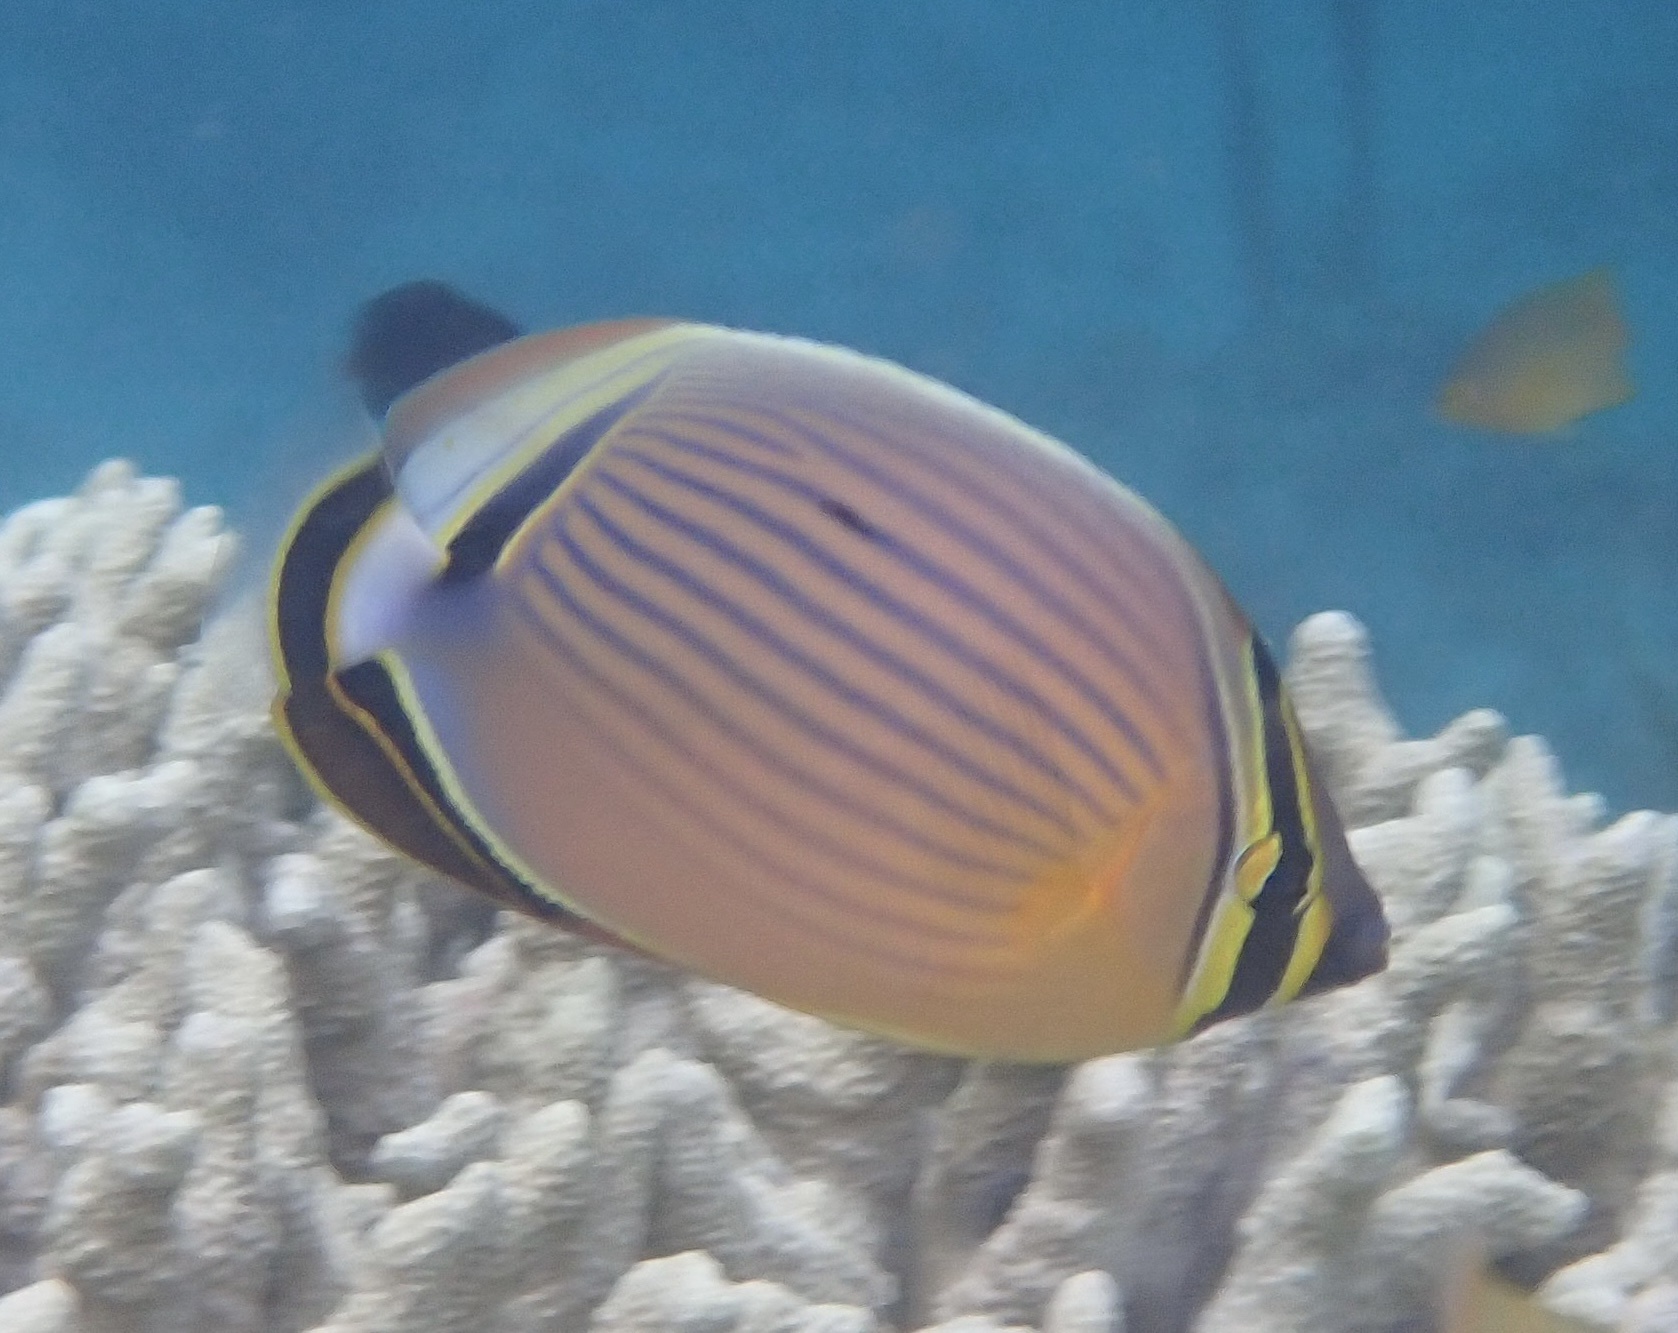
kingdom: Animalia
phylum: Chordata
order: Perciformes
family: Chaetodontidae
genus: Chaetodon
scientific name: Chaetodon lunulatus
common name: Redfin butterflyfish
